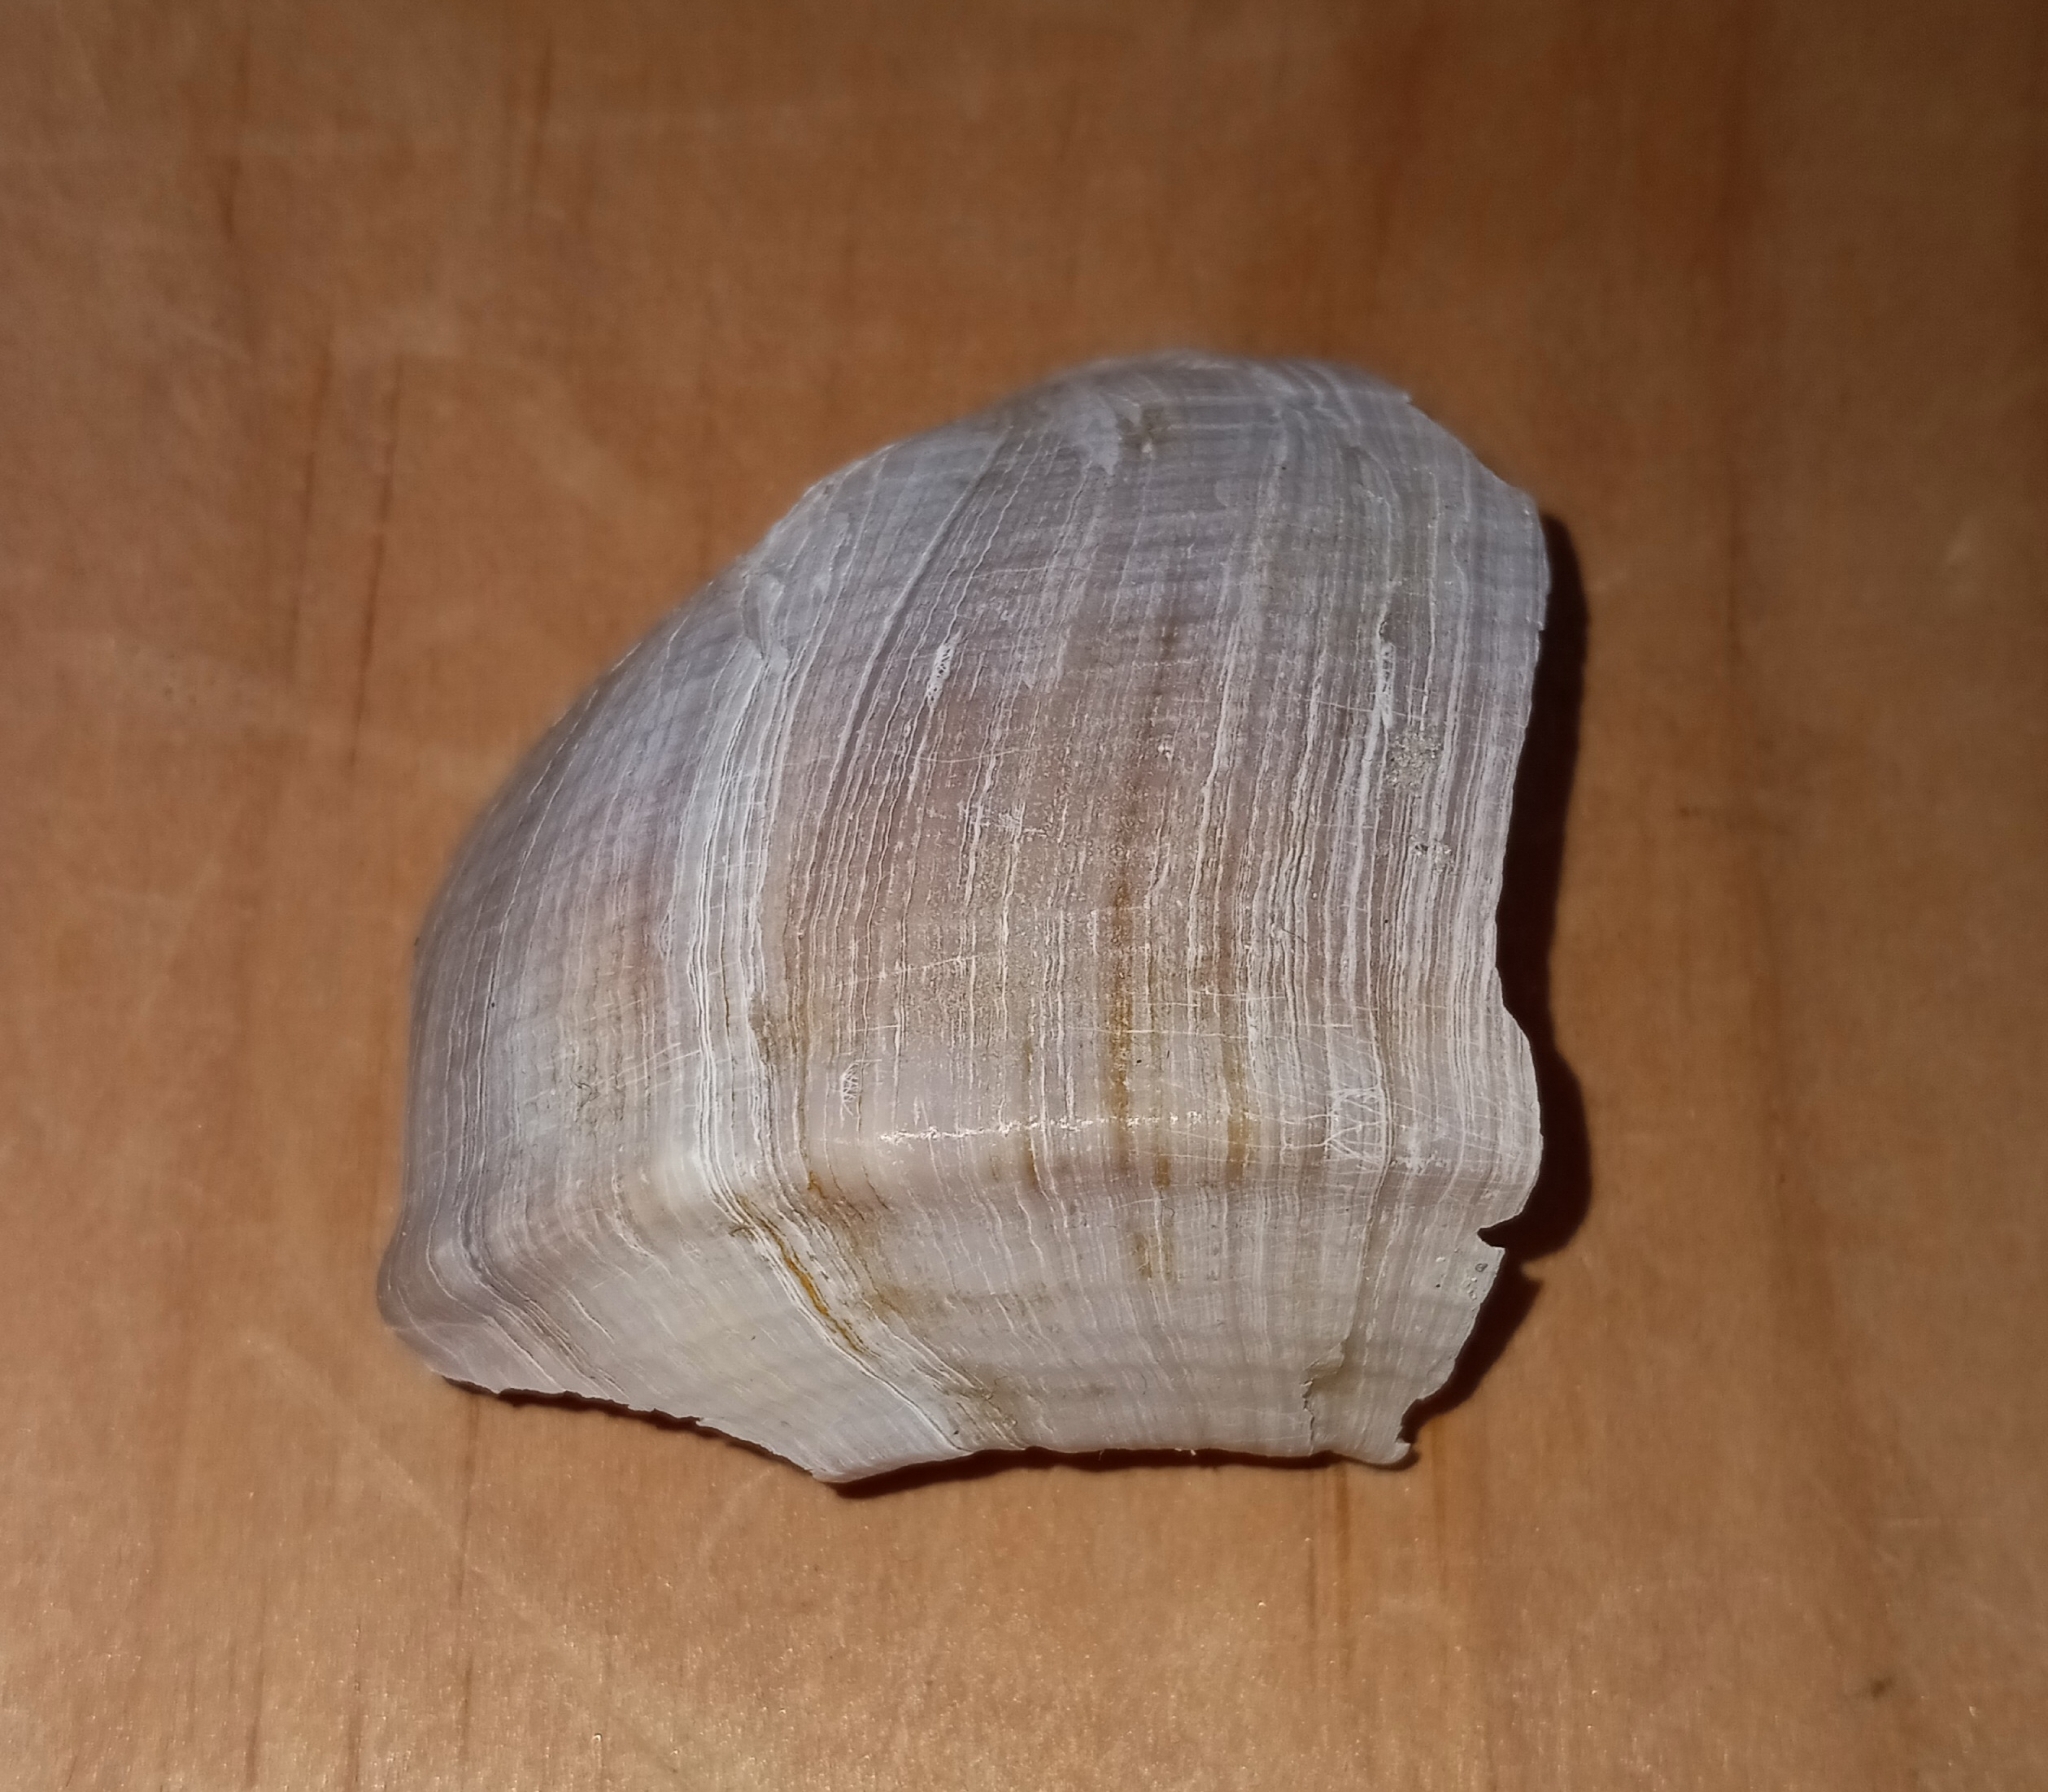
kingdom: Animalia
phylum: Mollusca
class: Gastropoda
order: Neogastropoda
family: Busyconidae
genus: Busycotypus
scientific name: Busycotypus canaliculatus
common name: Channeled whelk
